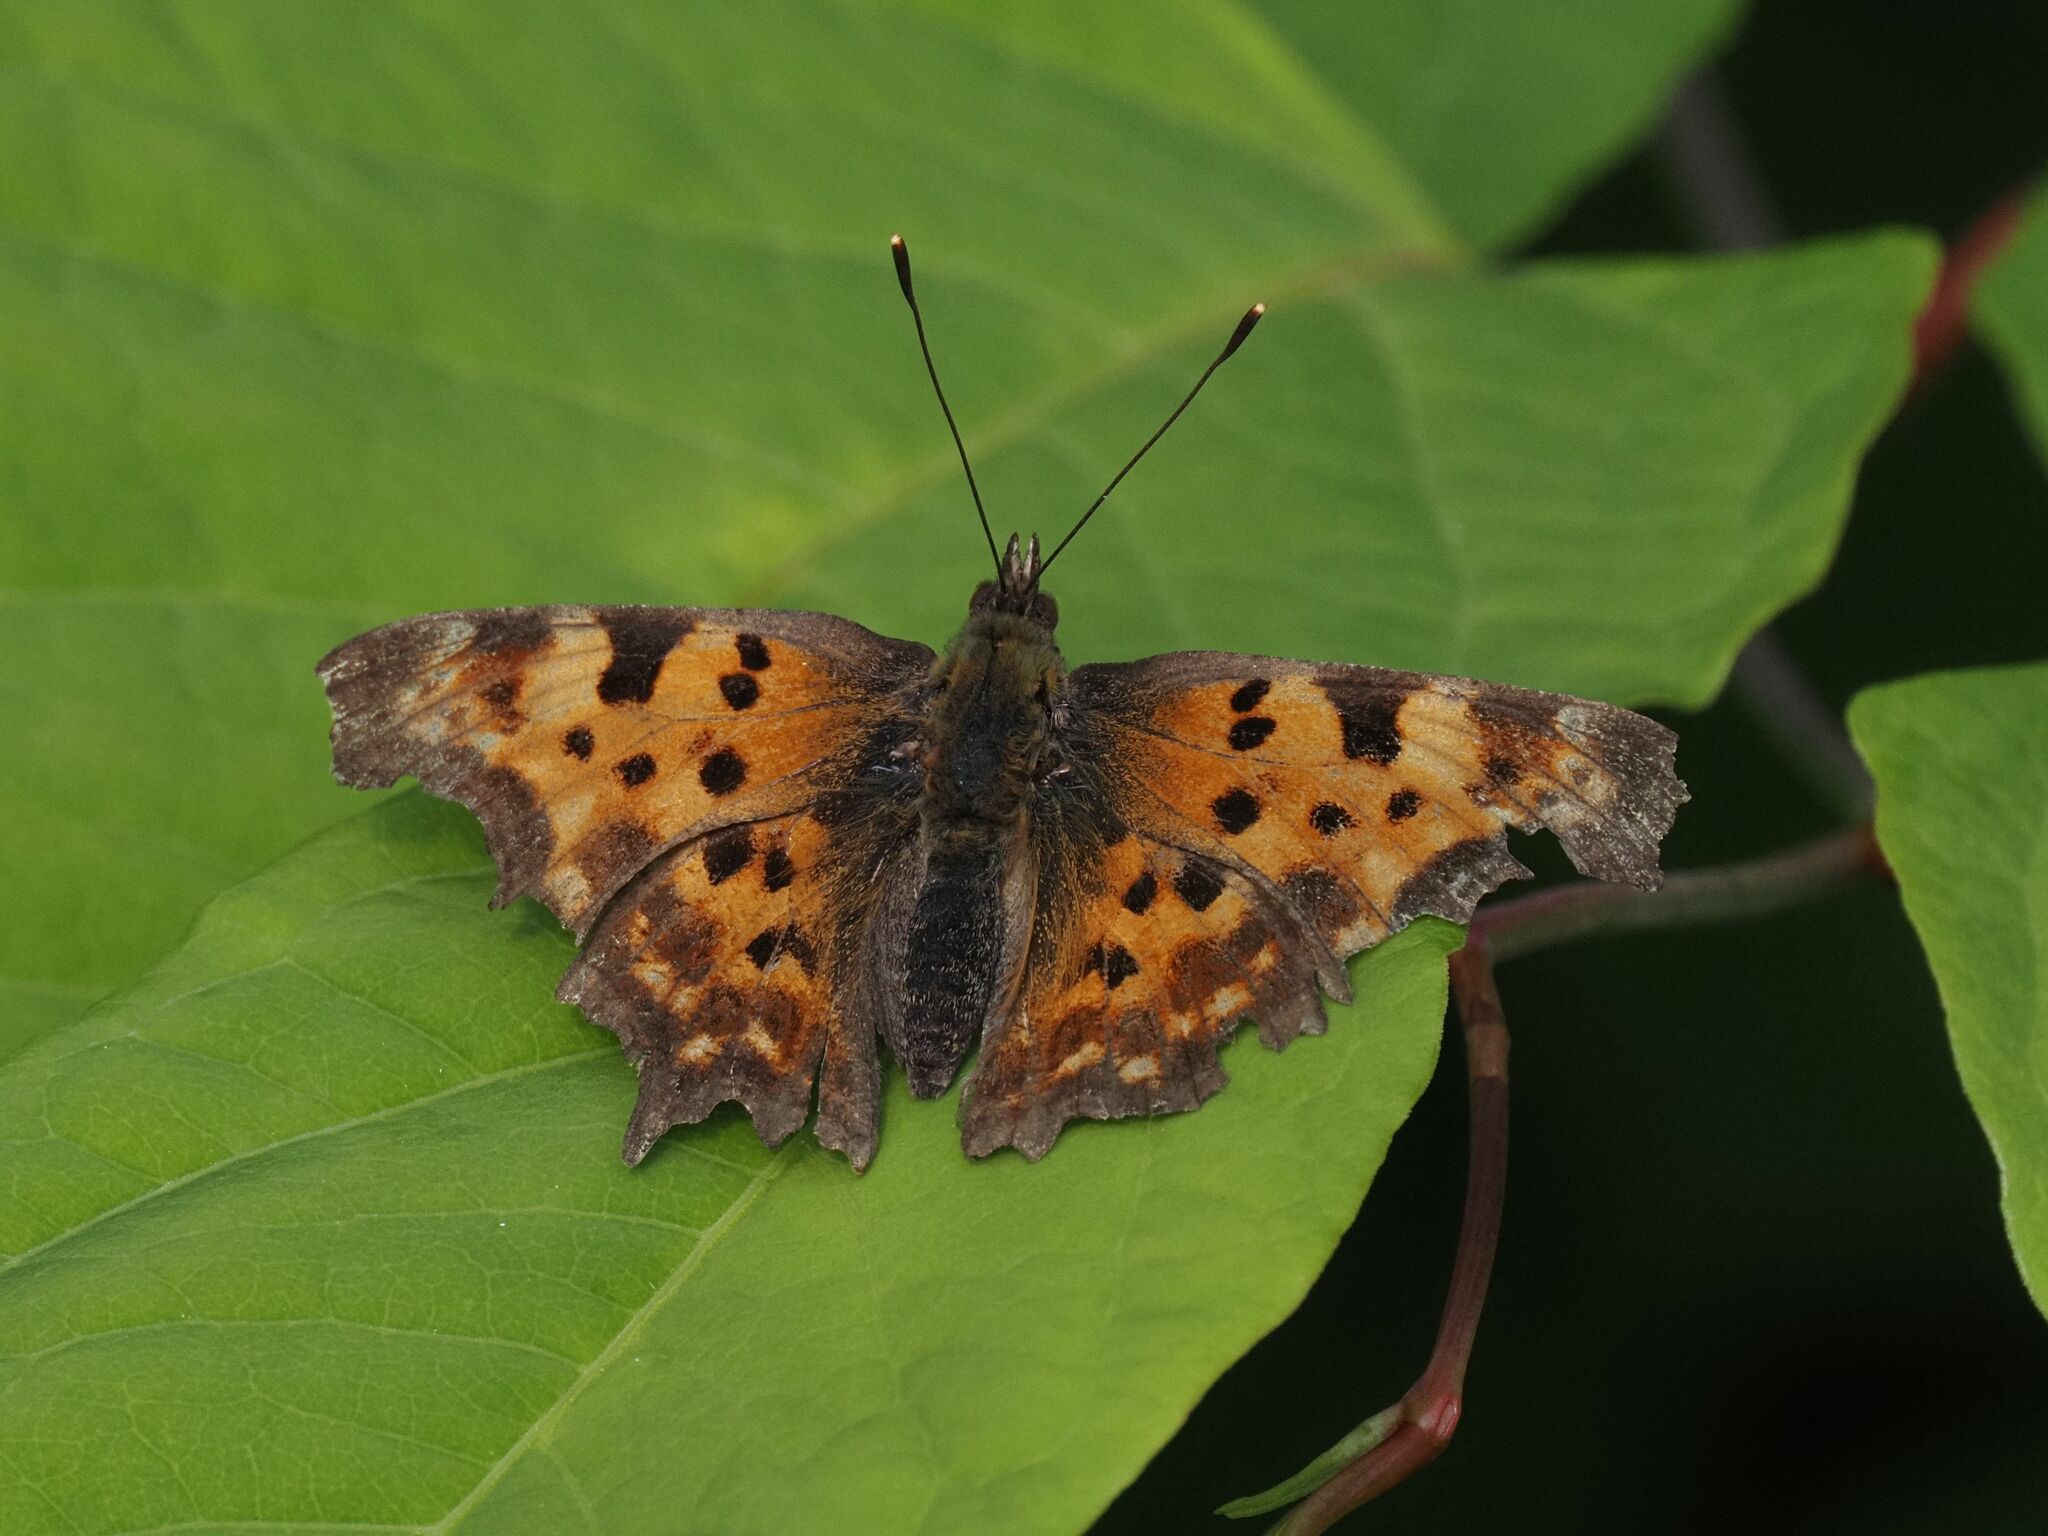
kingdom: Animalia
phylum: Arthropoda
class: Insecta
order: Lepidoptera
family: Nymphalidae
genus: Polygonia
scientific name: Polygonia c-album
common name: Comma
